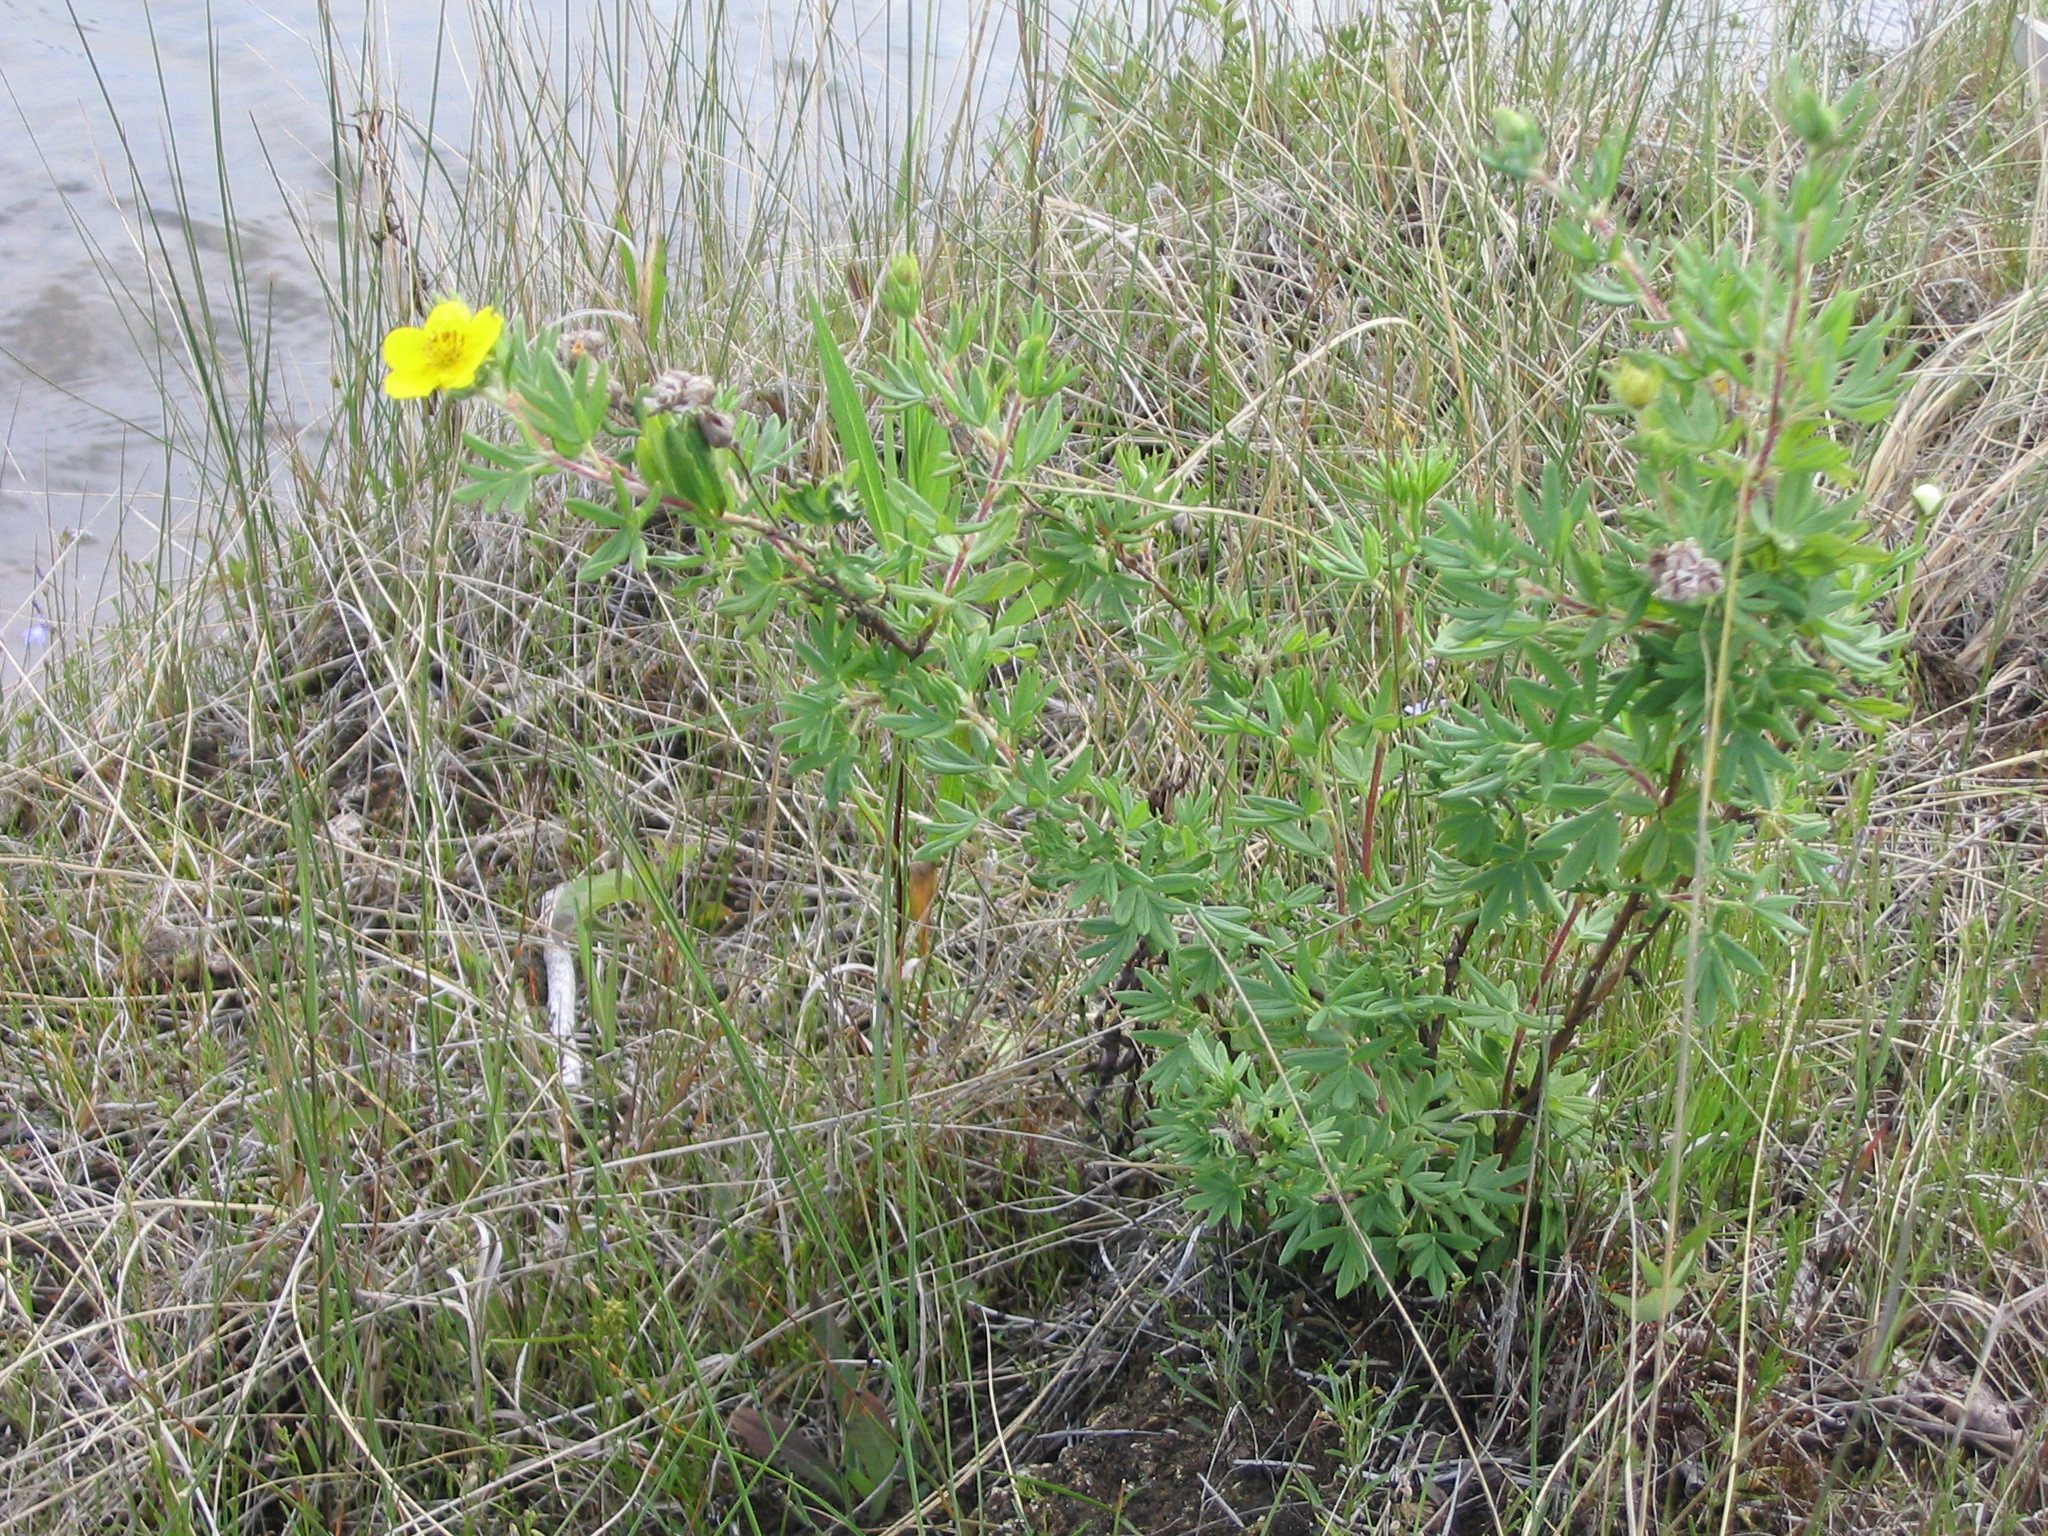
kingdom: Plantae
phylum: Tracheophyta
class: Magnoliopsida
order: Rosales
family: Rosaceae
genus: Dasiphora
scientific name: Dasiphora fruticosa
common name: Shrubby cinquefoil
